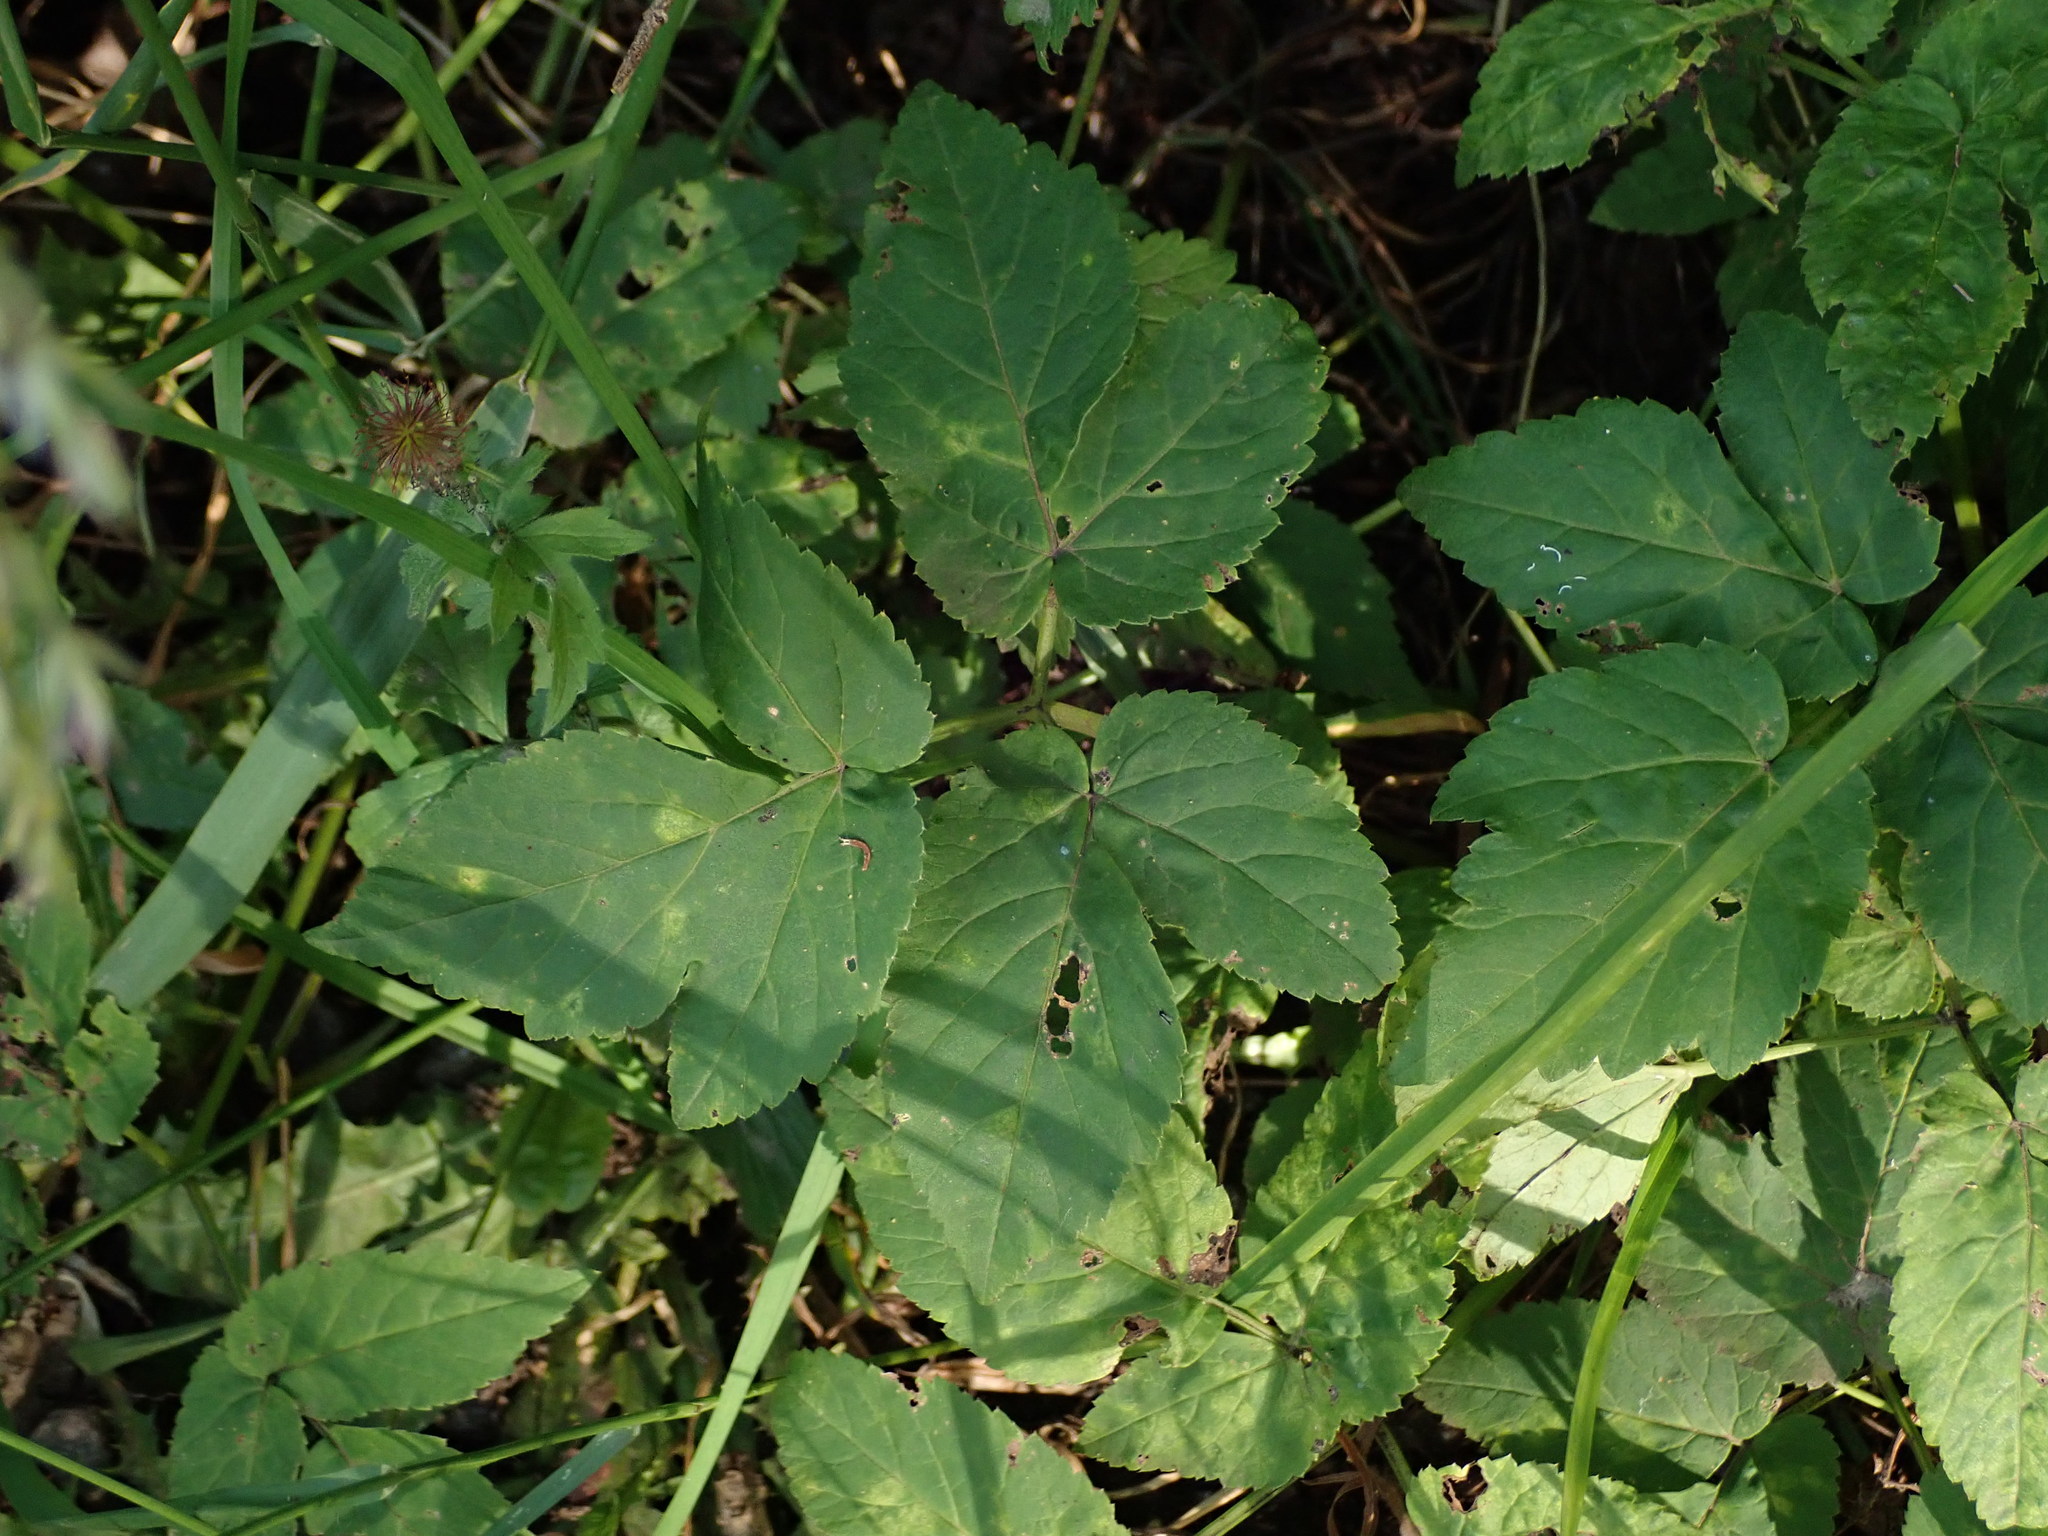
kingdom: Plantae
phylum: Tracheophyta
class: Magnoliopsida
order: Apiales
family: Apiaceae
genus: Aegopodium
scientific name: Aegopodium podagraria
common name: Ground-elder
